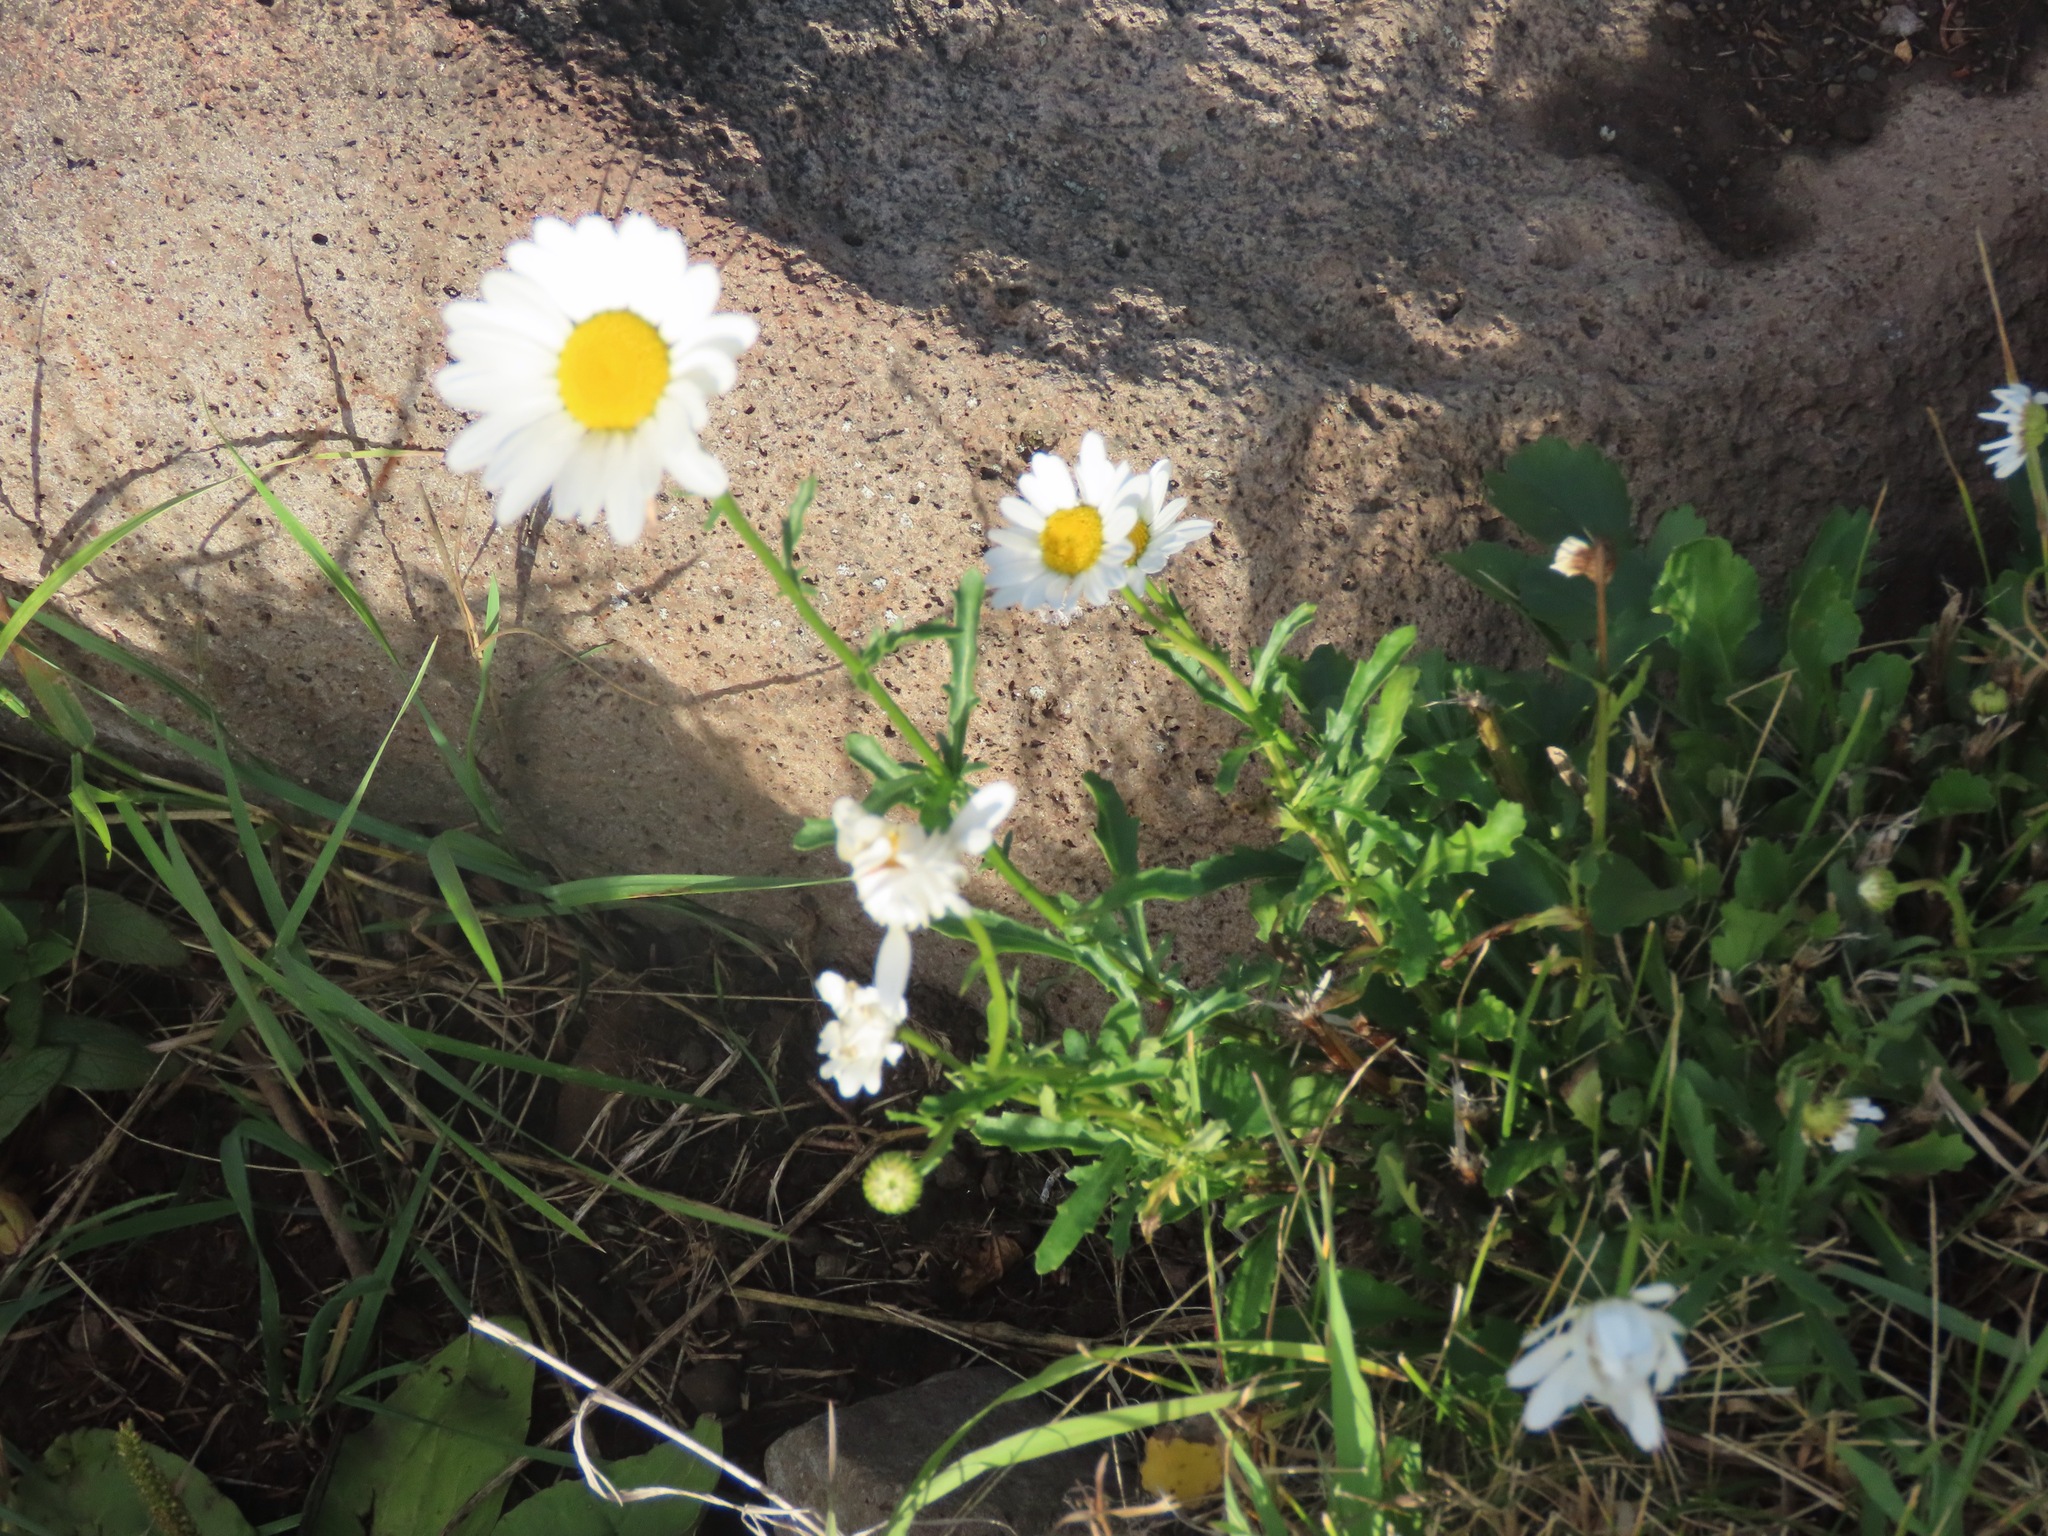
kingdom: Plantae
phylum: Tracheophyta
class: Magnoliopsida
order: Asterales
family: Asteraceae
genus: Leucanthemum
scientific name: Leucanthemum vulgare
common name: Oxeye daisy
